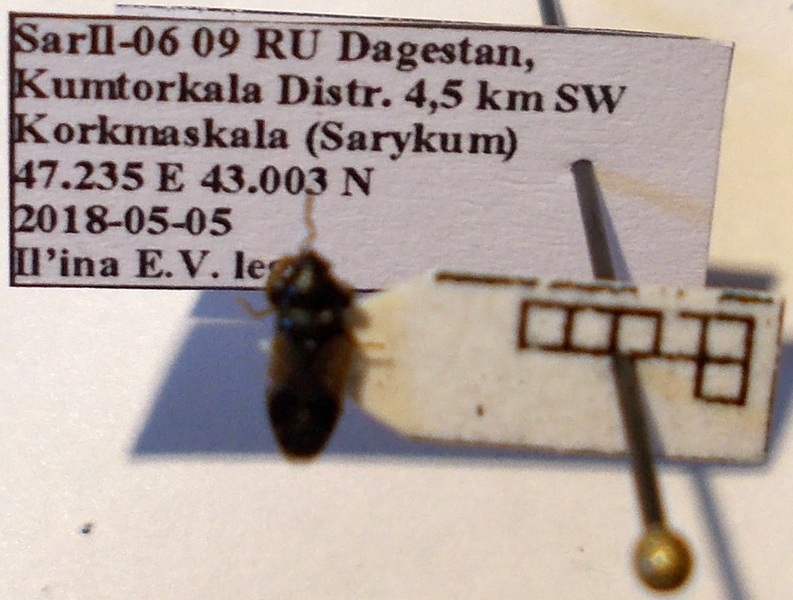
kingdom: Animalia
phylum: Arthropoda
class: Insecta
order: Hemiptera
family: Rhyparochromidae
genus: Megalonotus
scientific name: Megalonotus praetextatus
